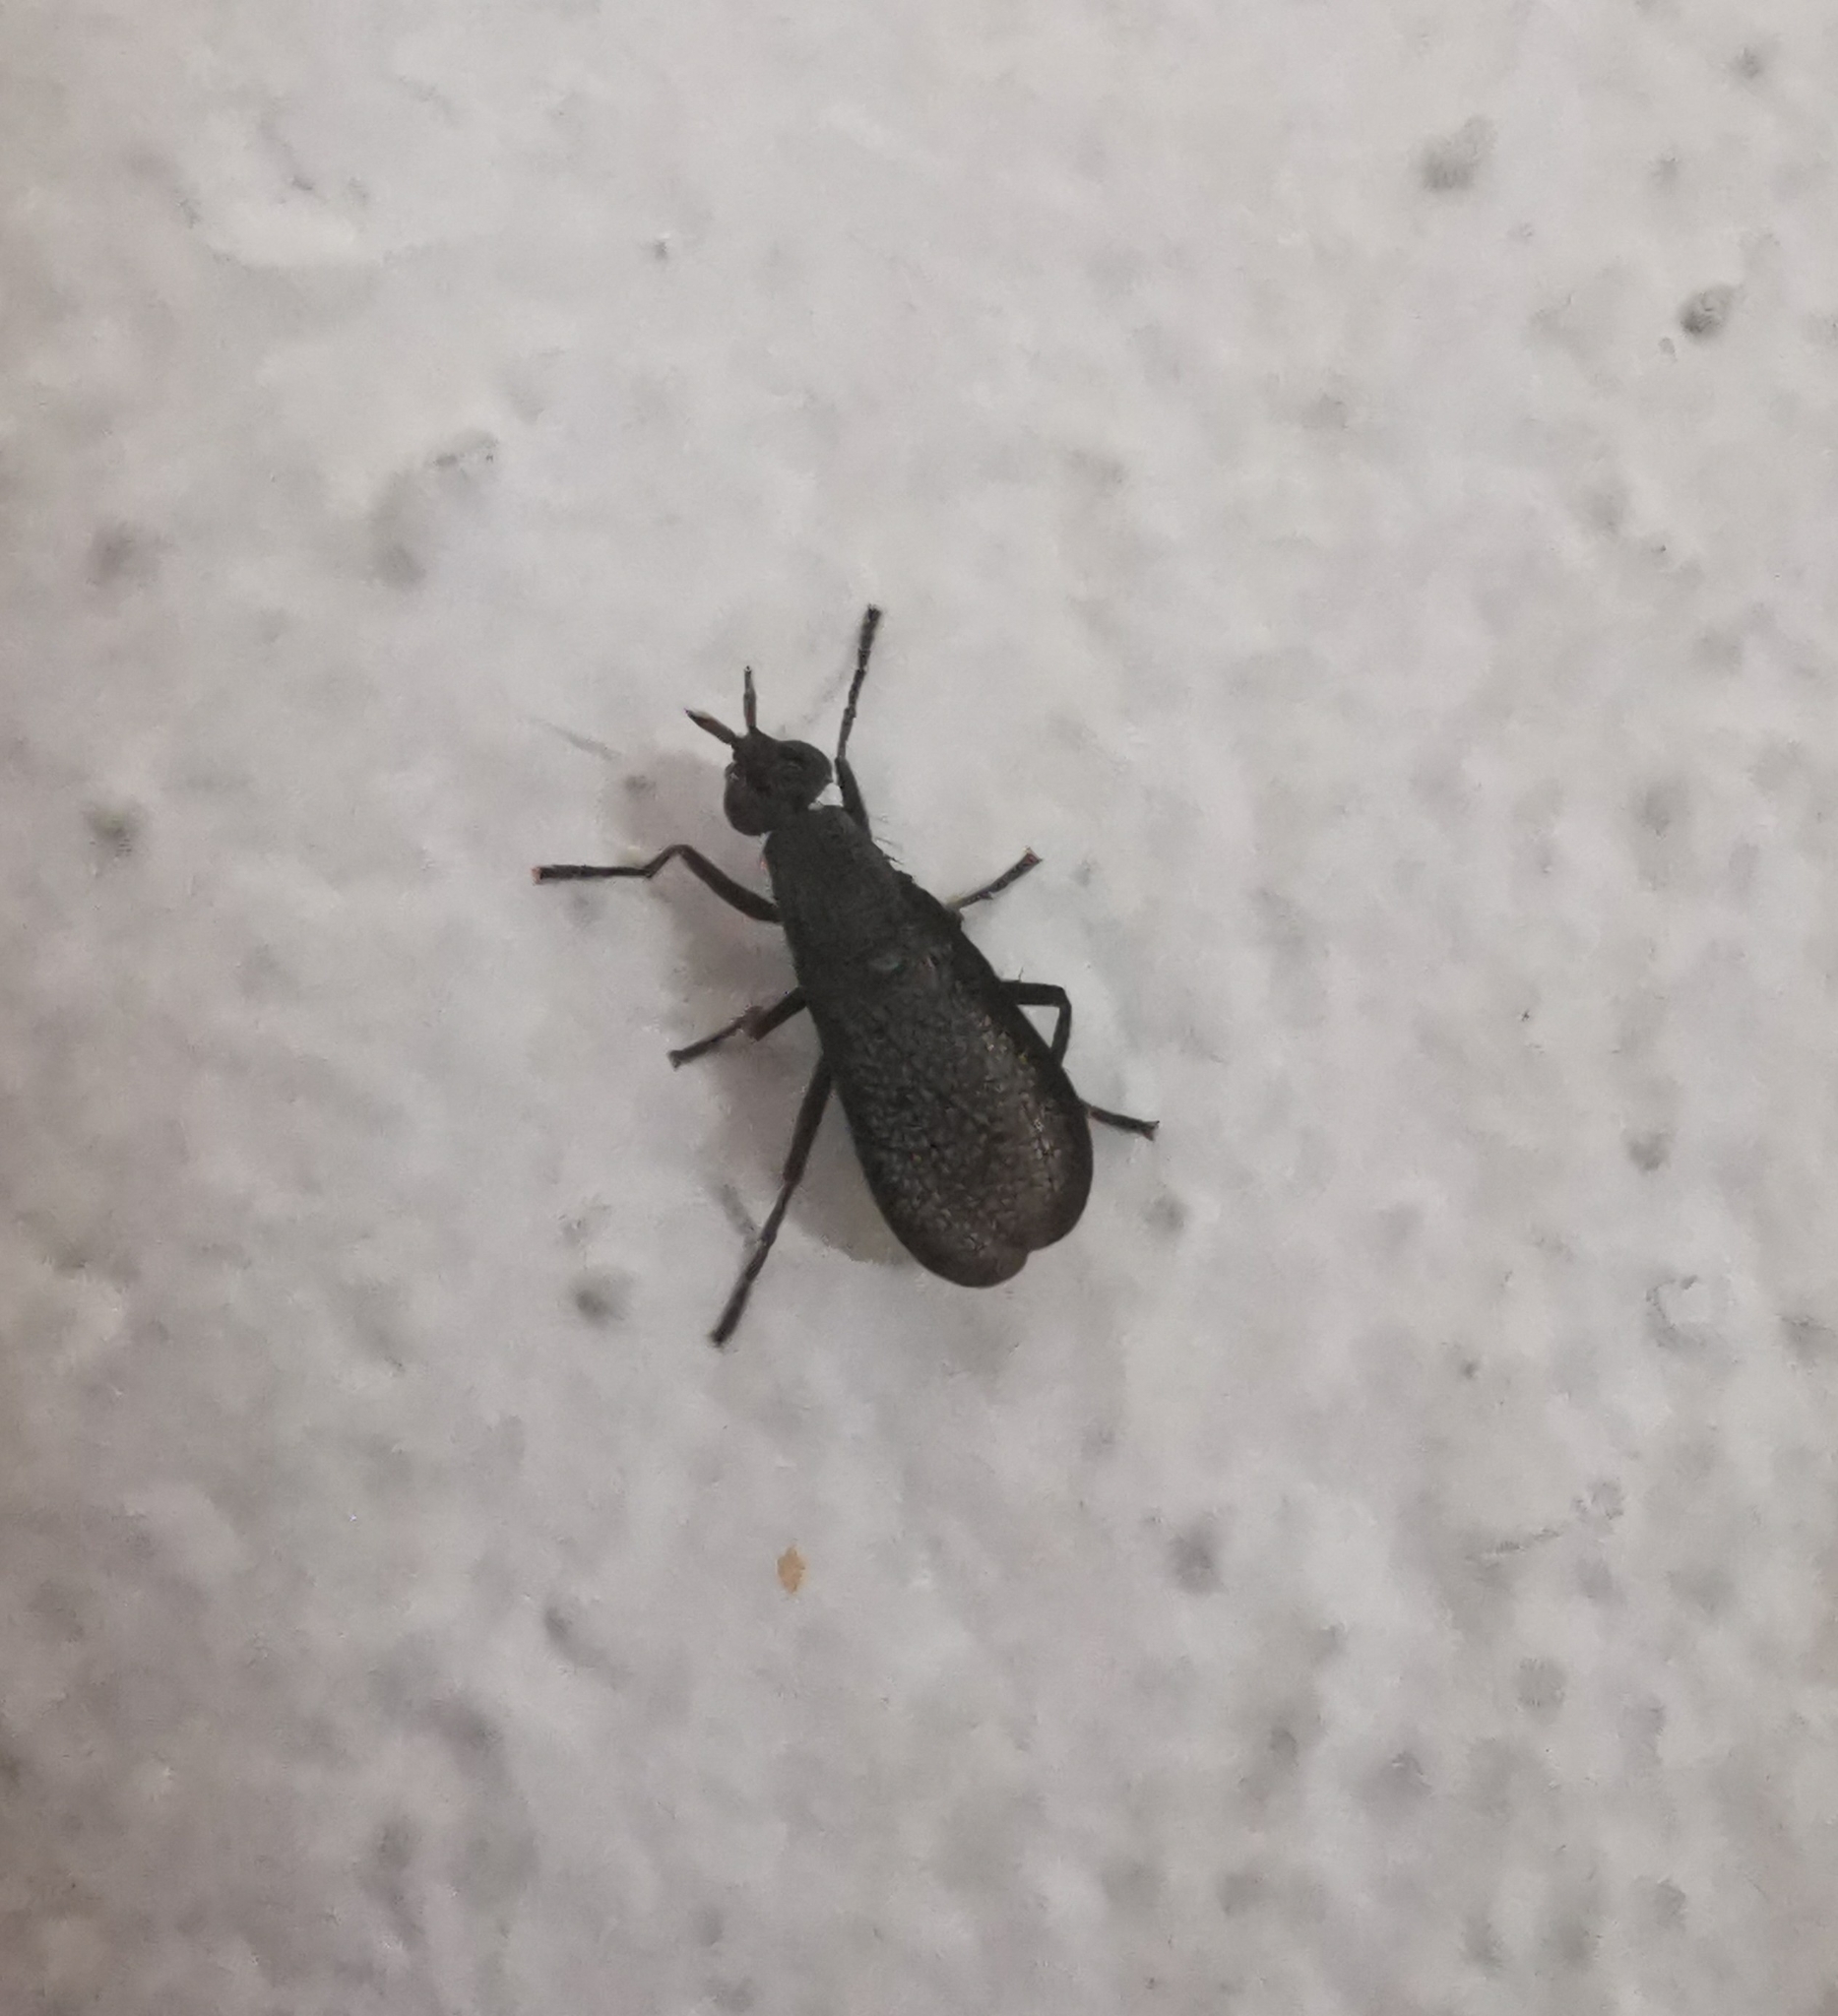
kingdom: Animalia
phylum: Arthropoda
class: Insecta
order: Diptera
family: Sciomyzidae
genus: Coremacera
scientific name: Coremacera marginata
